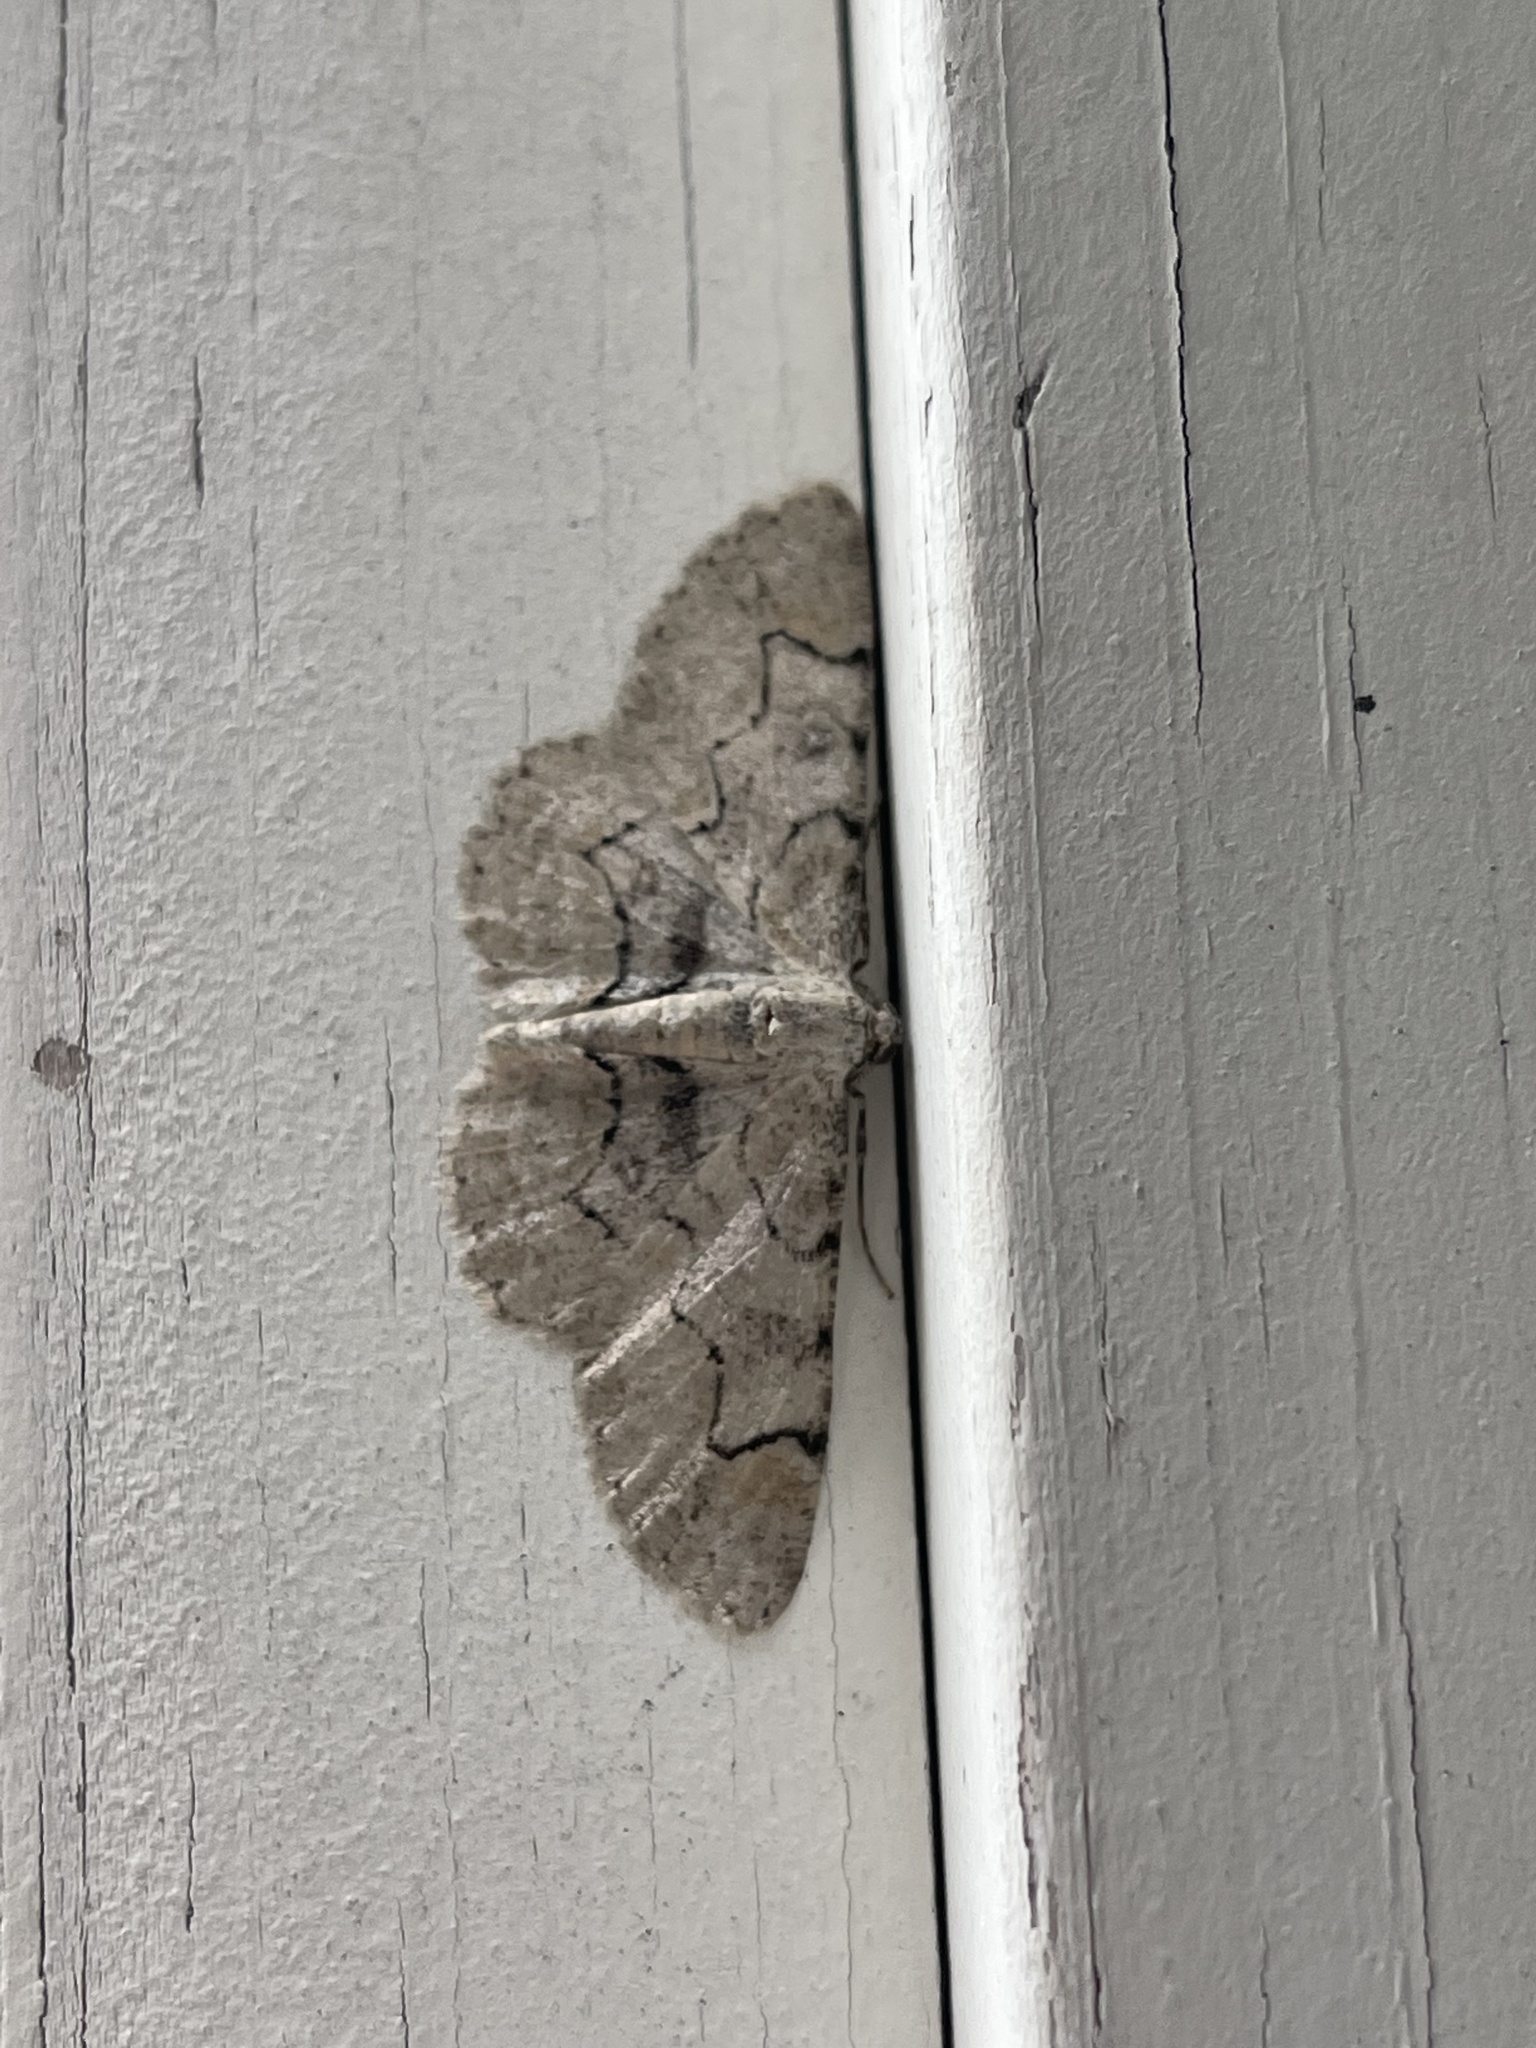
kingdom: Animalia
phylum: Arthropoda
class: Insecta
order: Lepidoptera
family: Geometridae
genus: Iridopsis
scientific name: Iridopsis larvaria
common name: Bent-line gray
